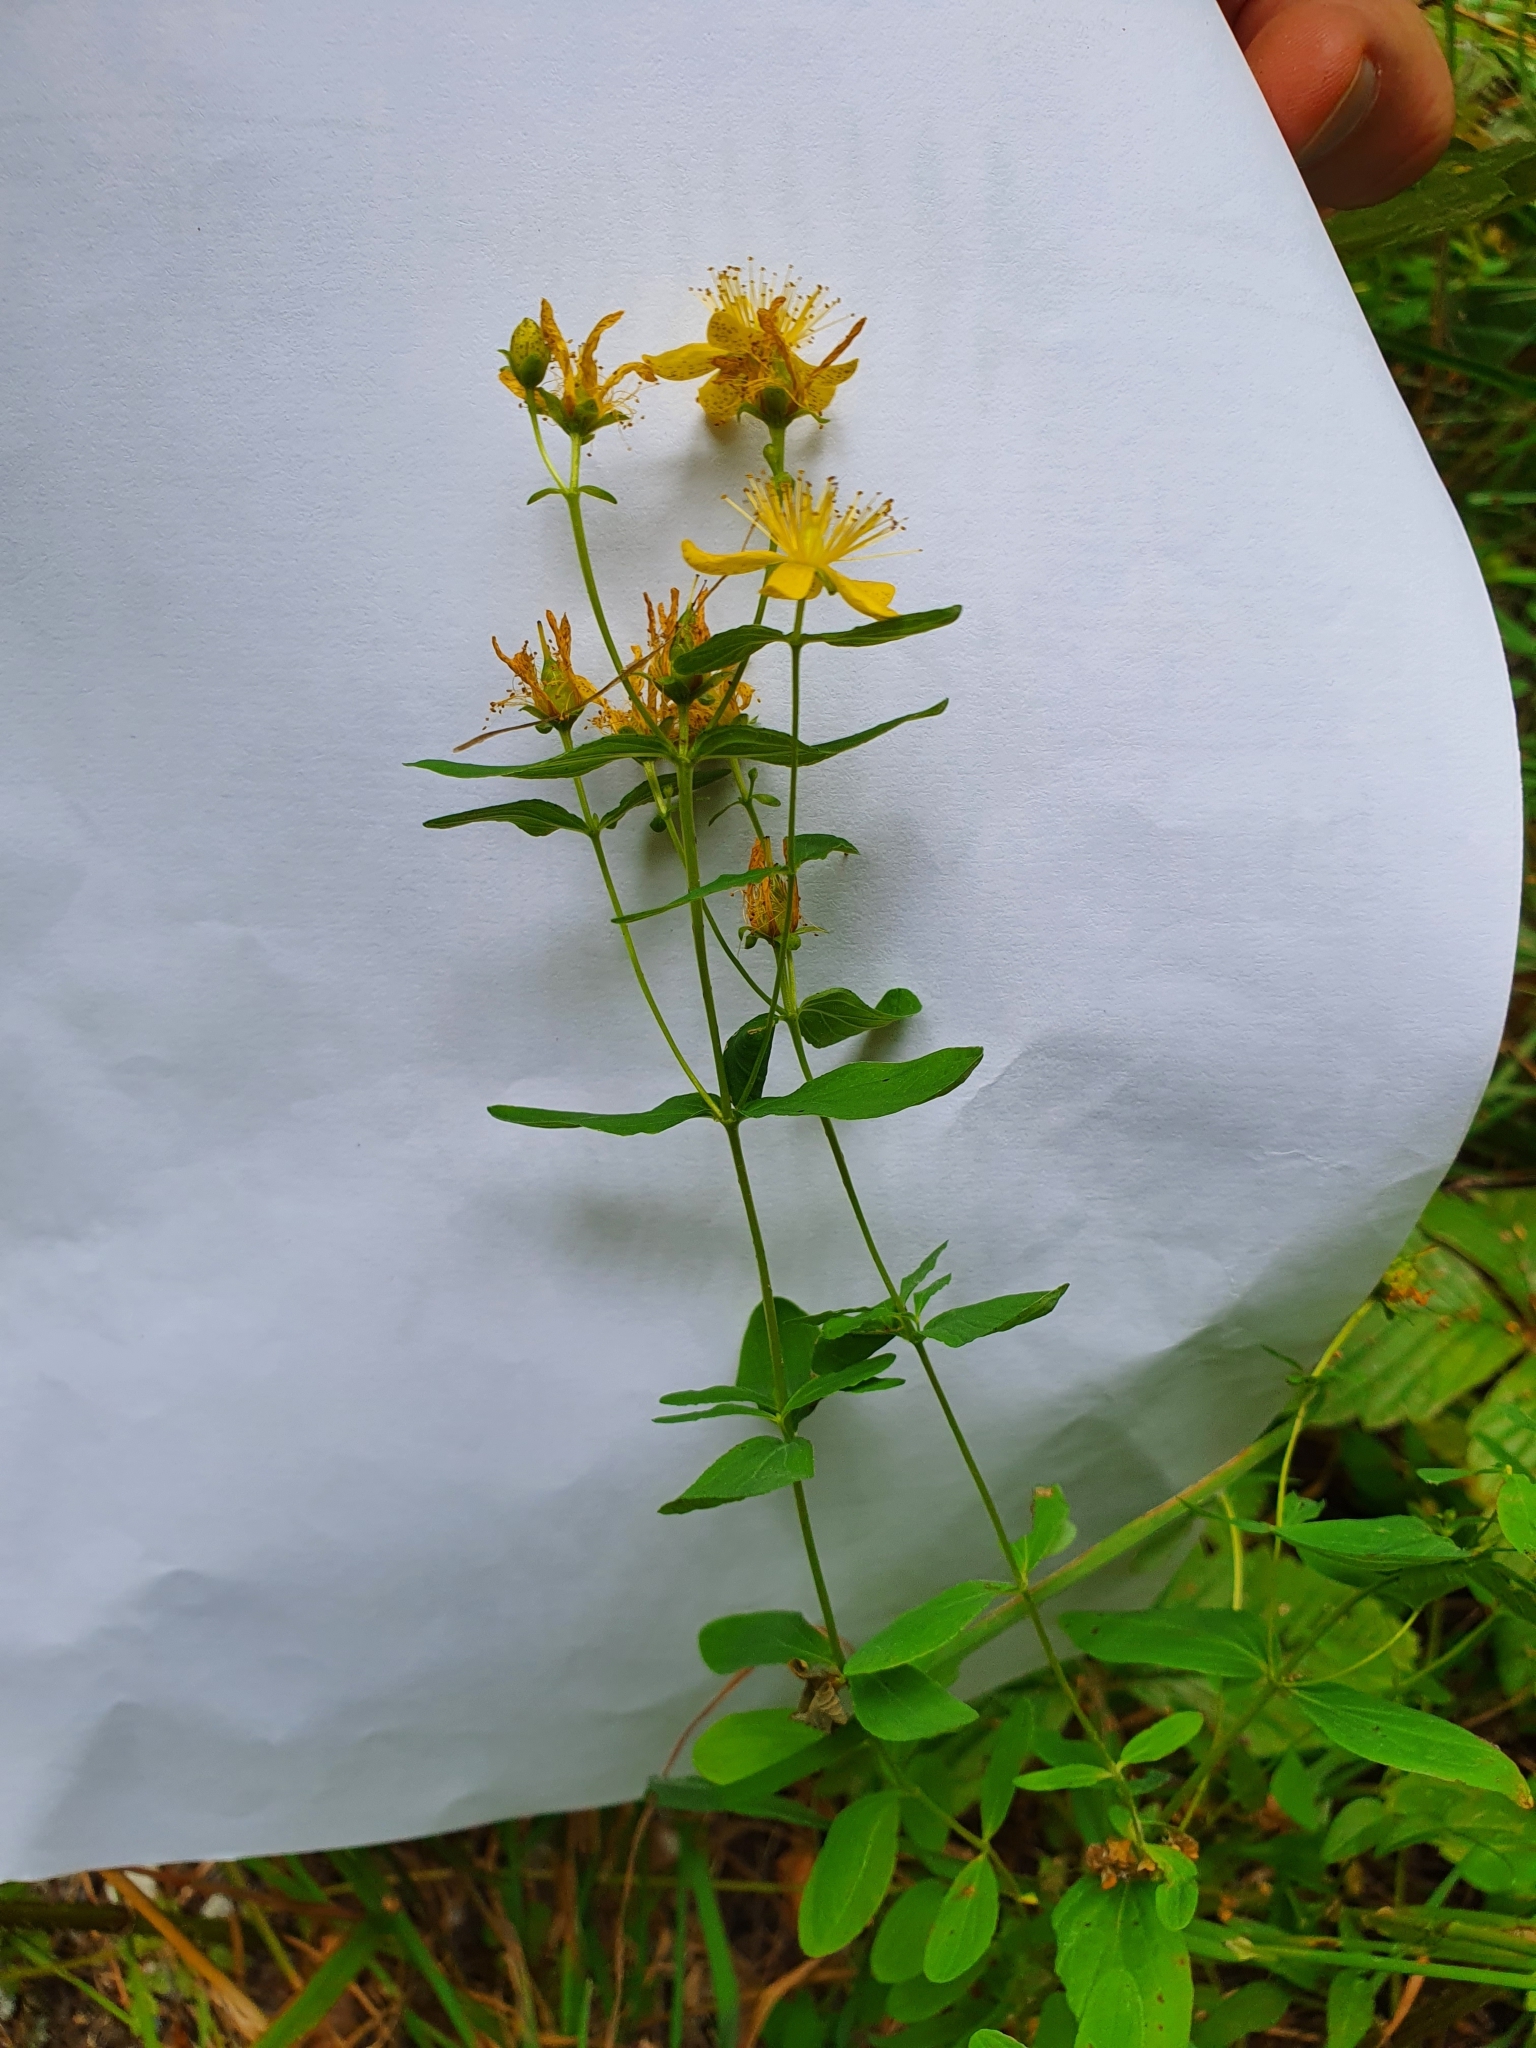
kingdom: Plantae
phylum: Tracheophyta
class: Magnoliopsida
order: Malpighiales
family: Hypericaceae
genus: Hypericum
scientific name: Hypericum maculatum
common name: Imperforate st. john's-wort
